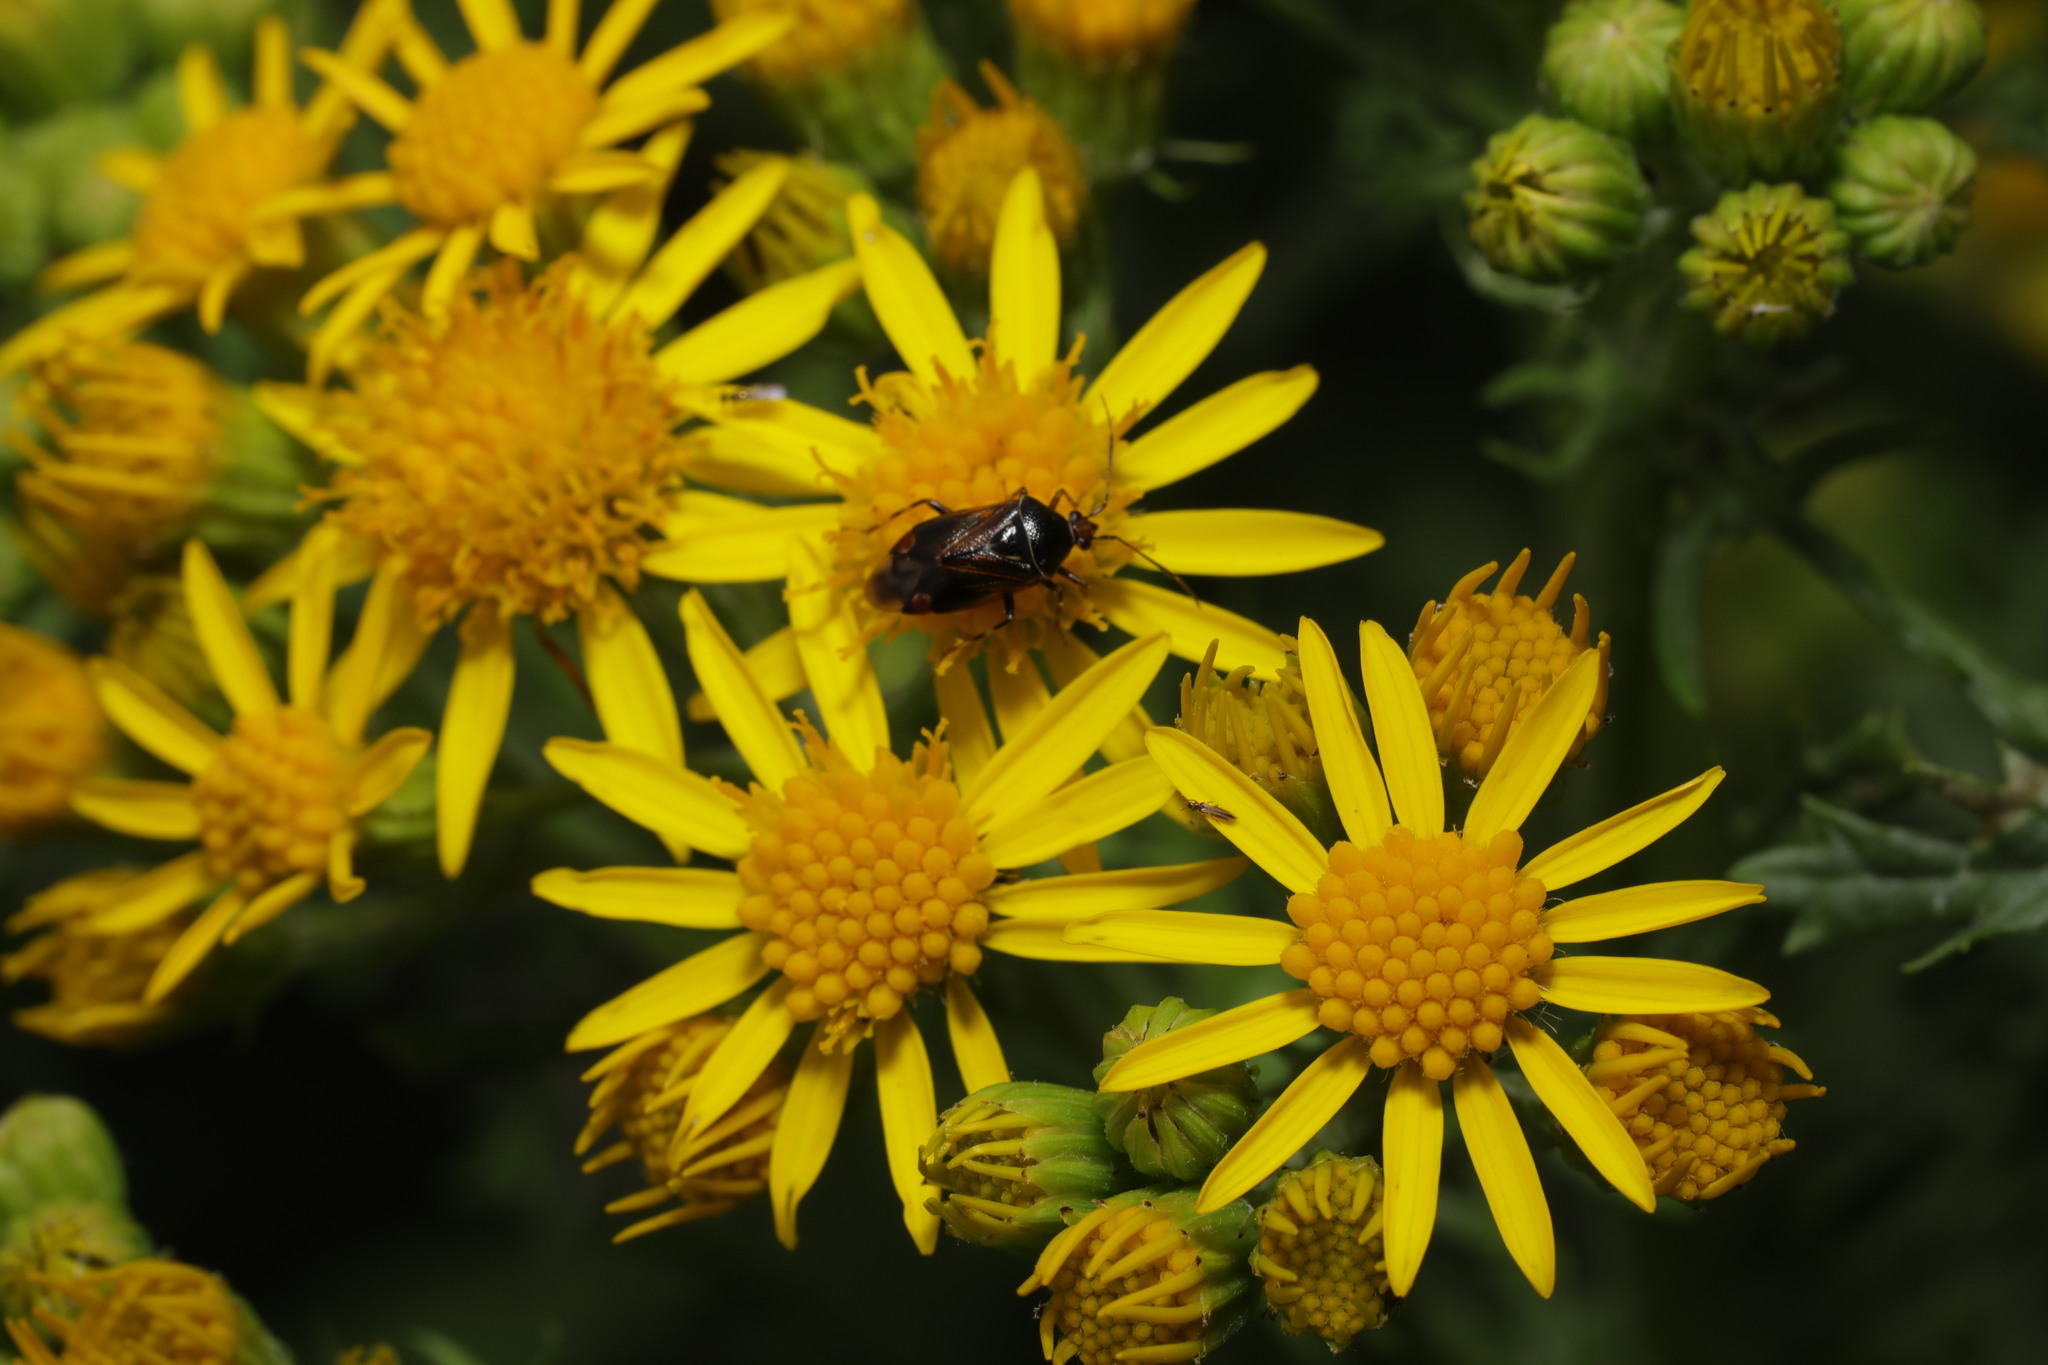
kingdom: Animalia
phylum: Arthropoda
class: Insecta
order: Hemiptera
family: Miridae
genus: Deraeocoris
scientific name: Deraeocoris flavilinea
